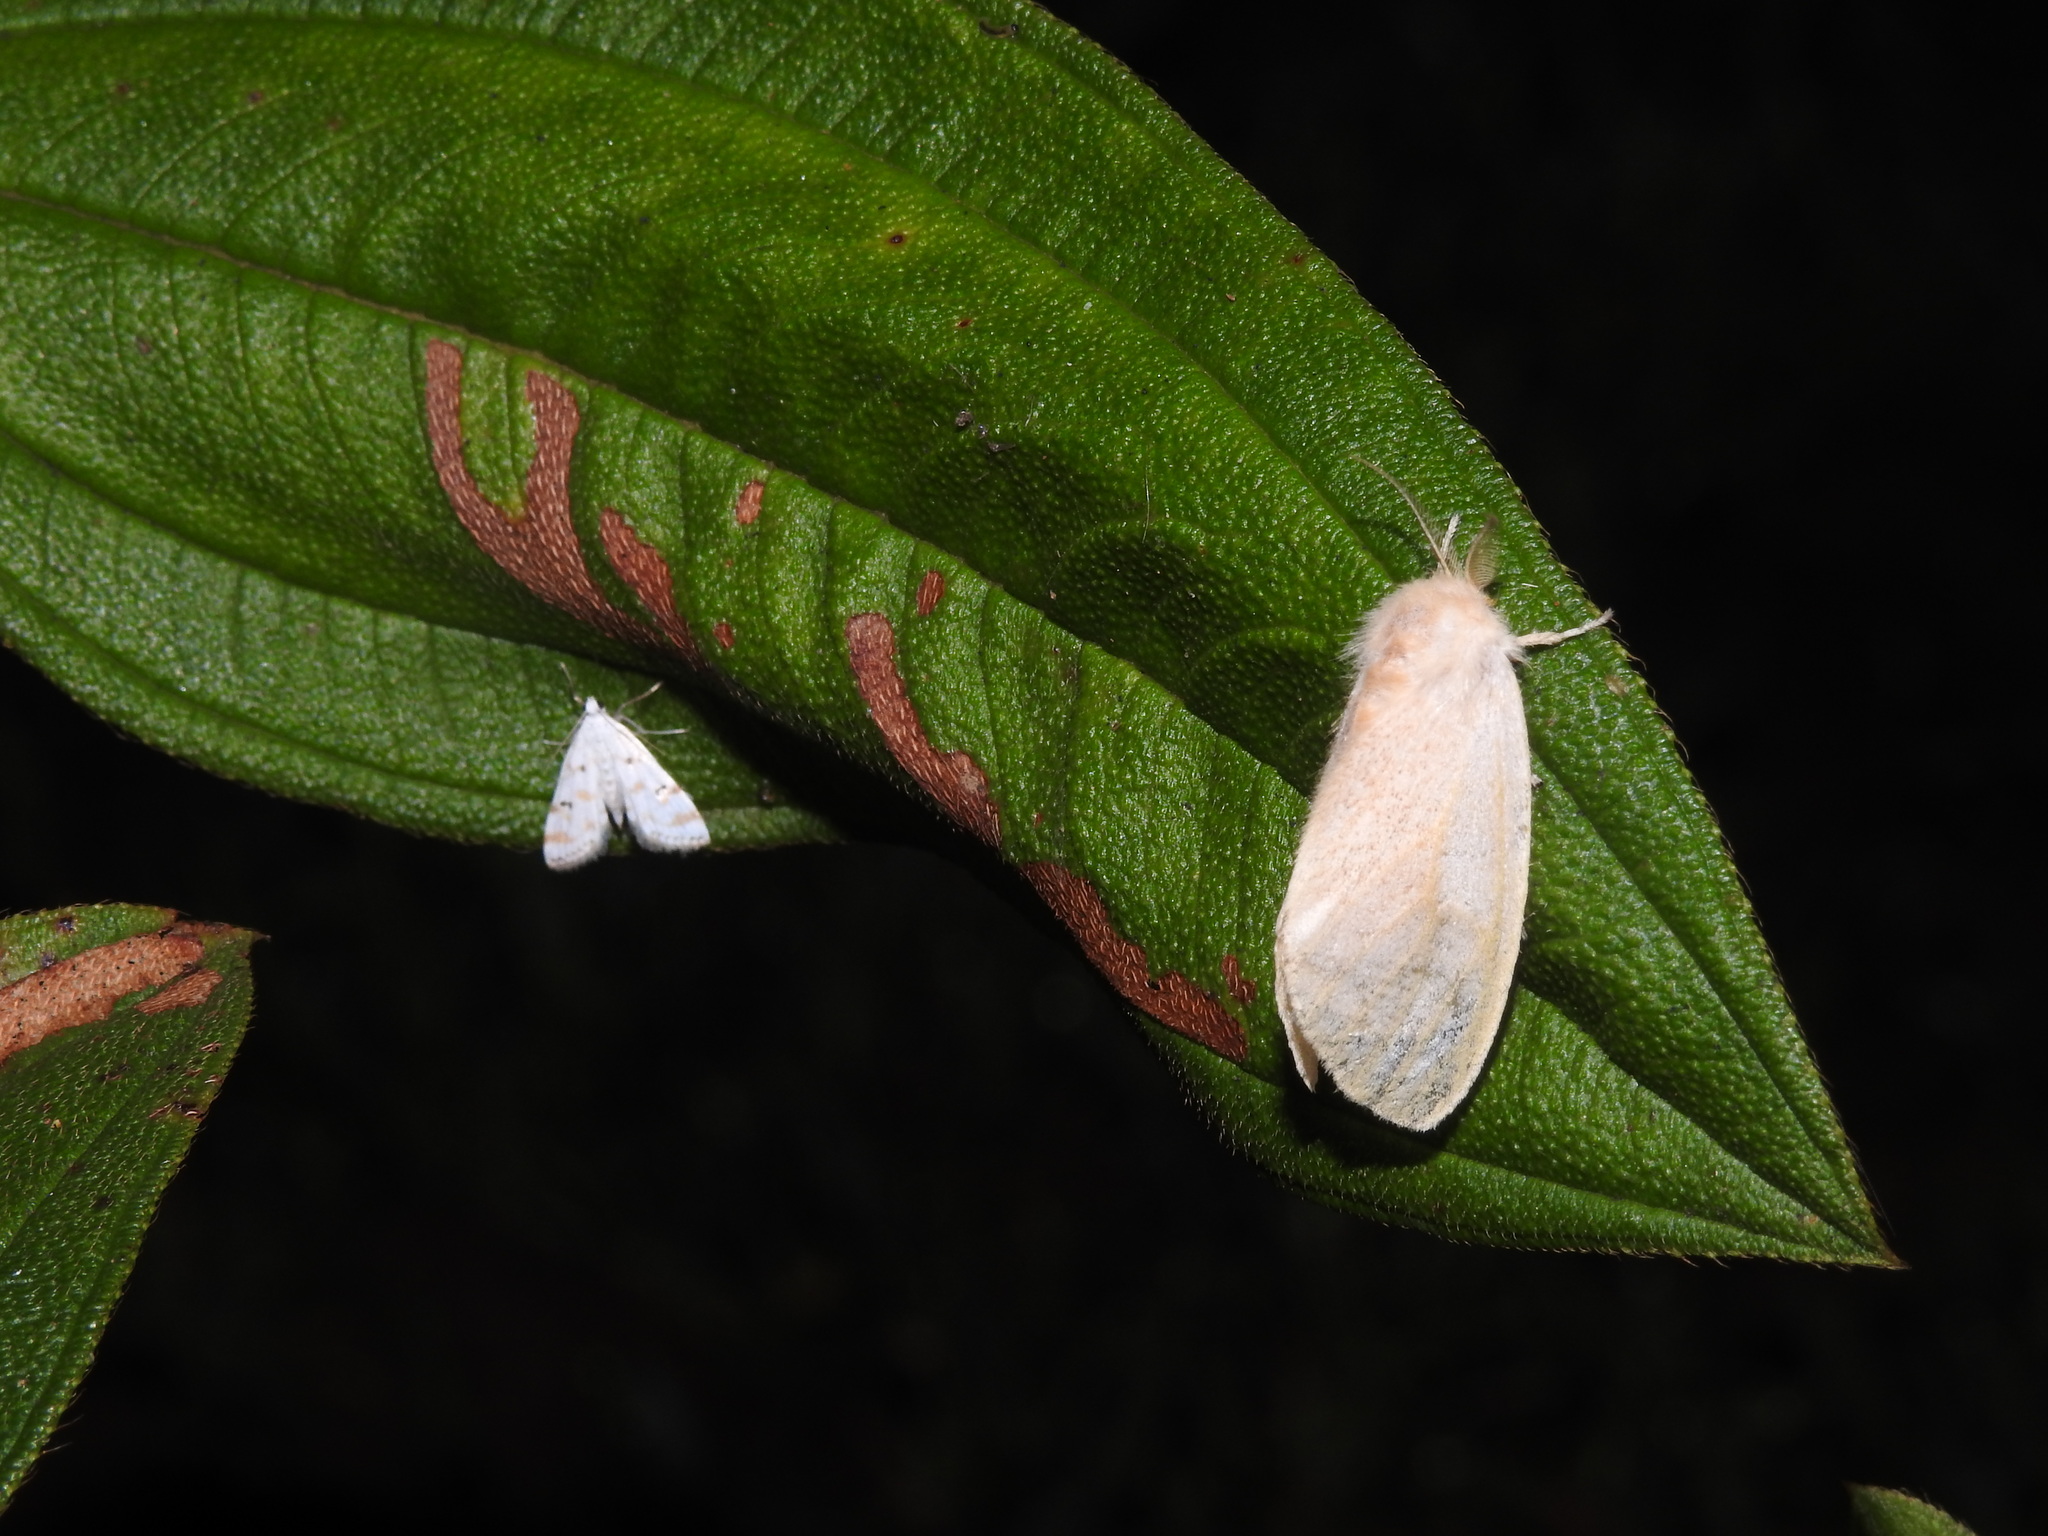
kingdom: Animalia
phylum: Arthropoda
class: Insecta
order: Lepidoptera
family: Crambidae
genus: Parapoynx
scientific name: Parapoynx stagnalis
